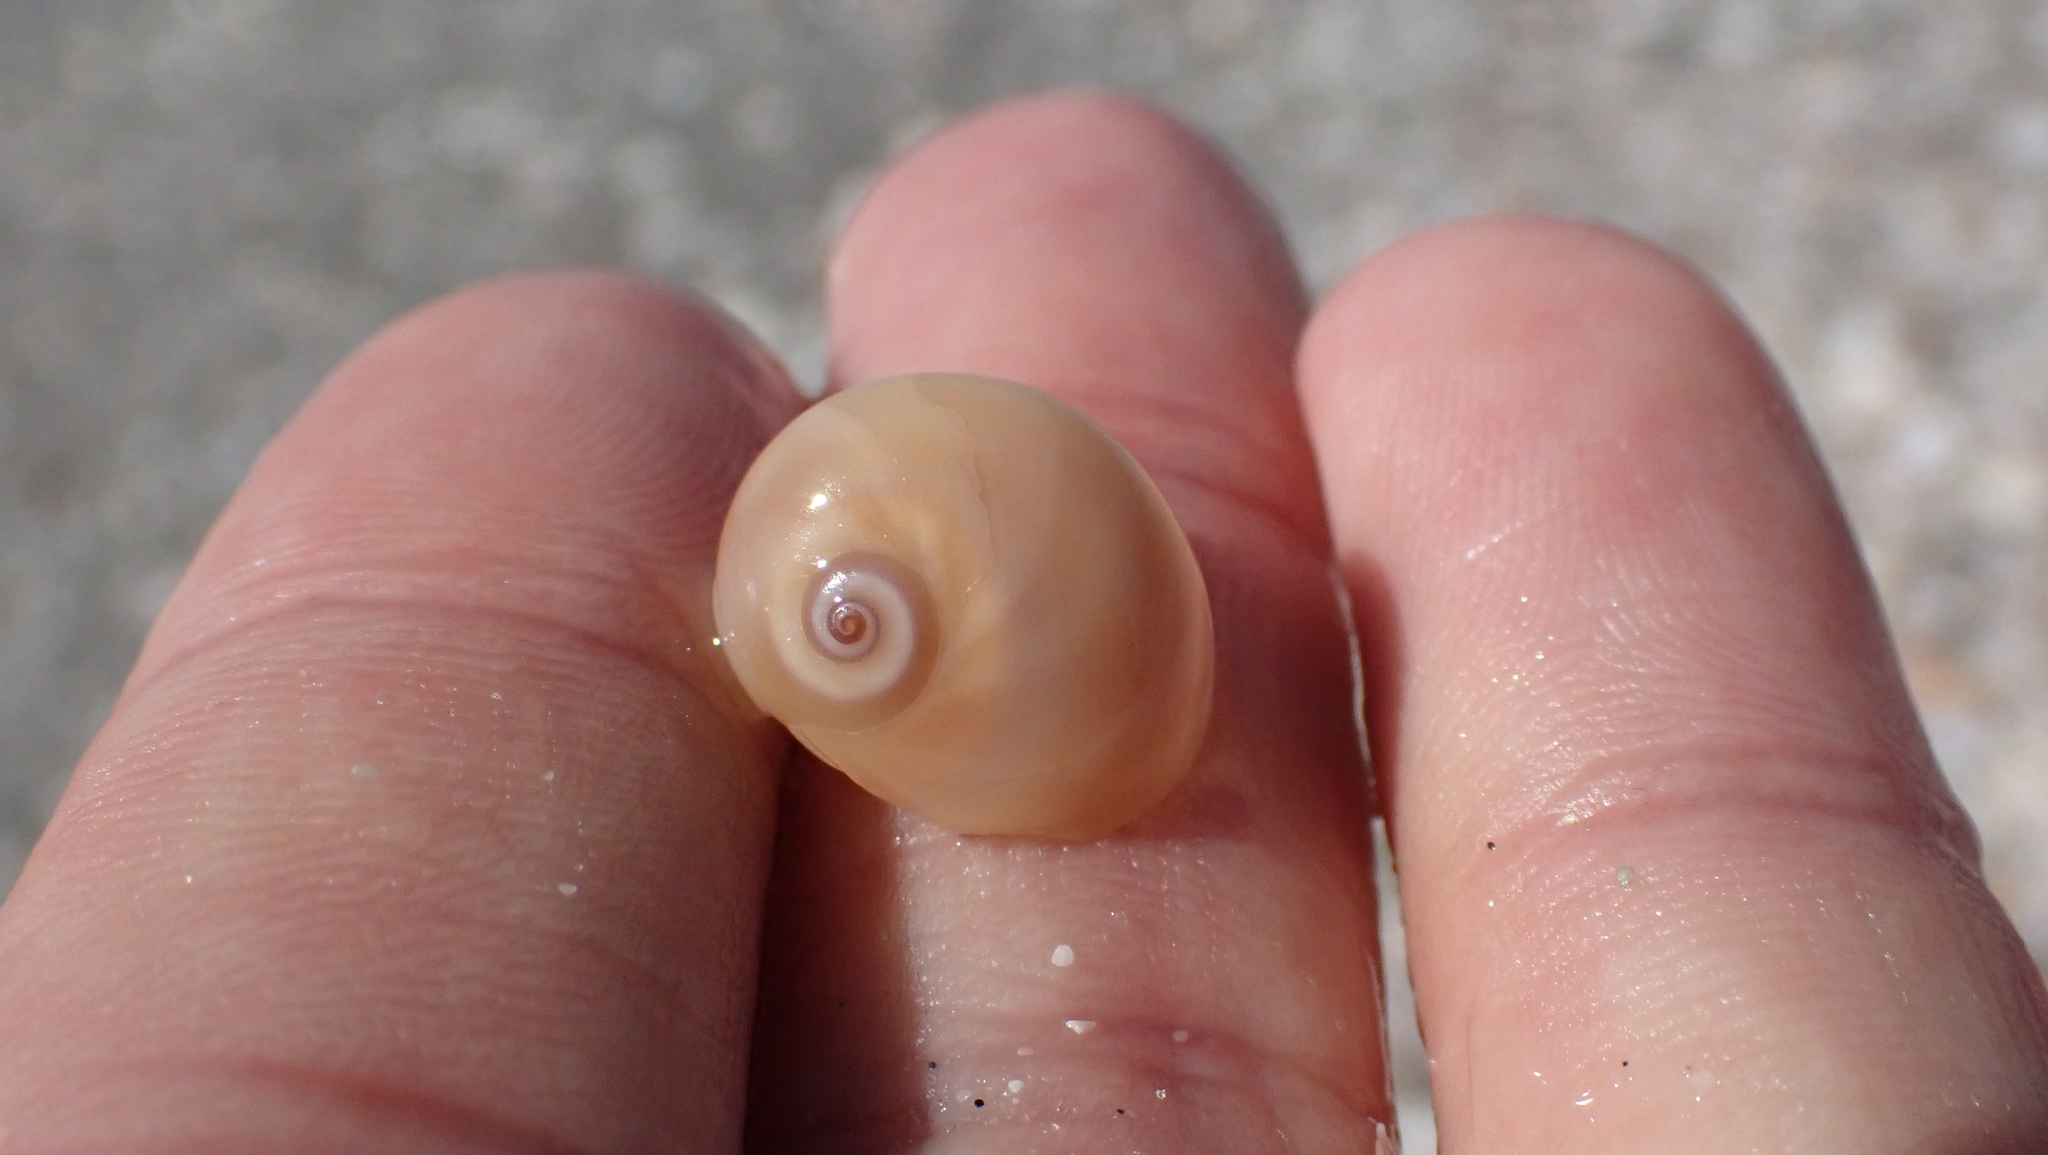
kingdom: Animalia
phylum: Mollusca
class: Gastropoda
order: Littorinimorpha
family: Naticidae
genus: Neverita
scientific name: Neverita duplicata
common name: Lobed moonsnail
